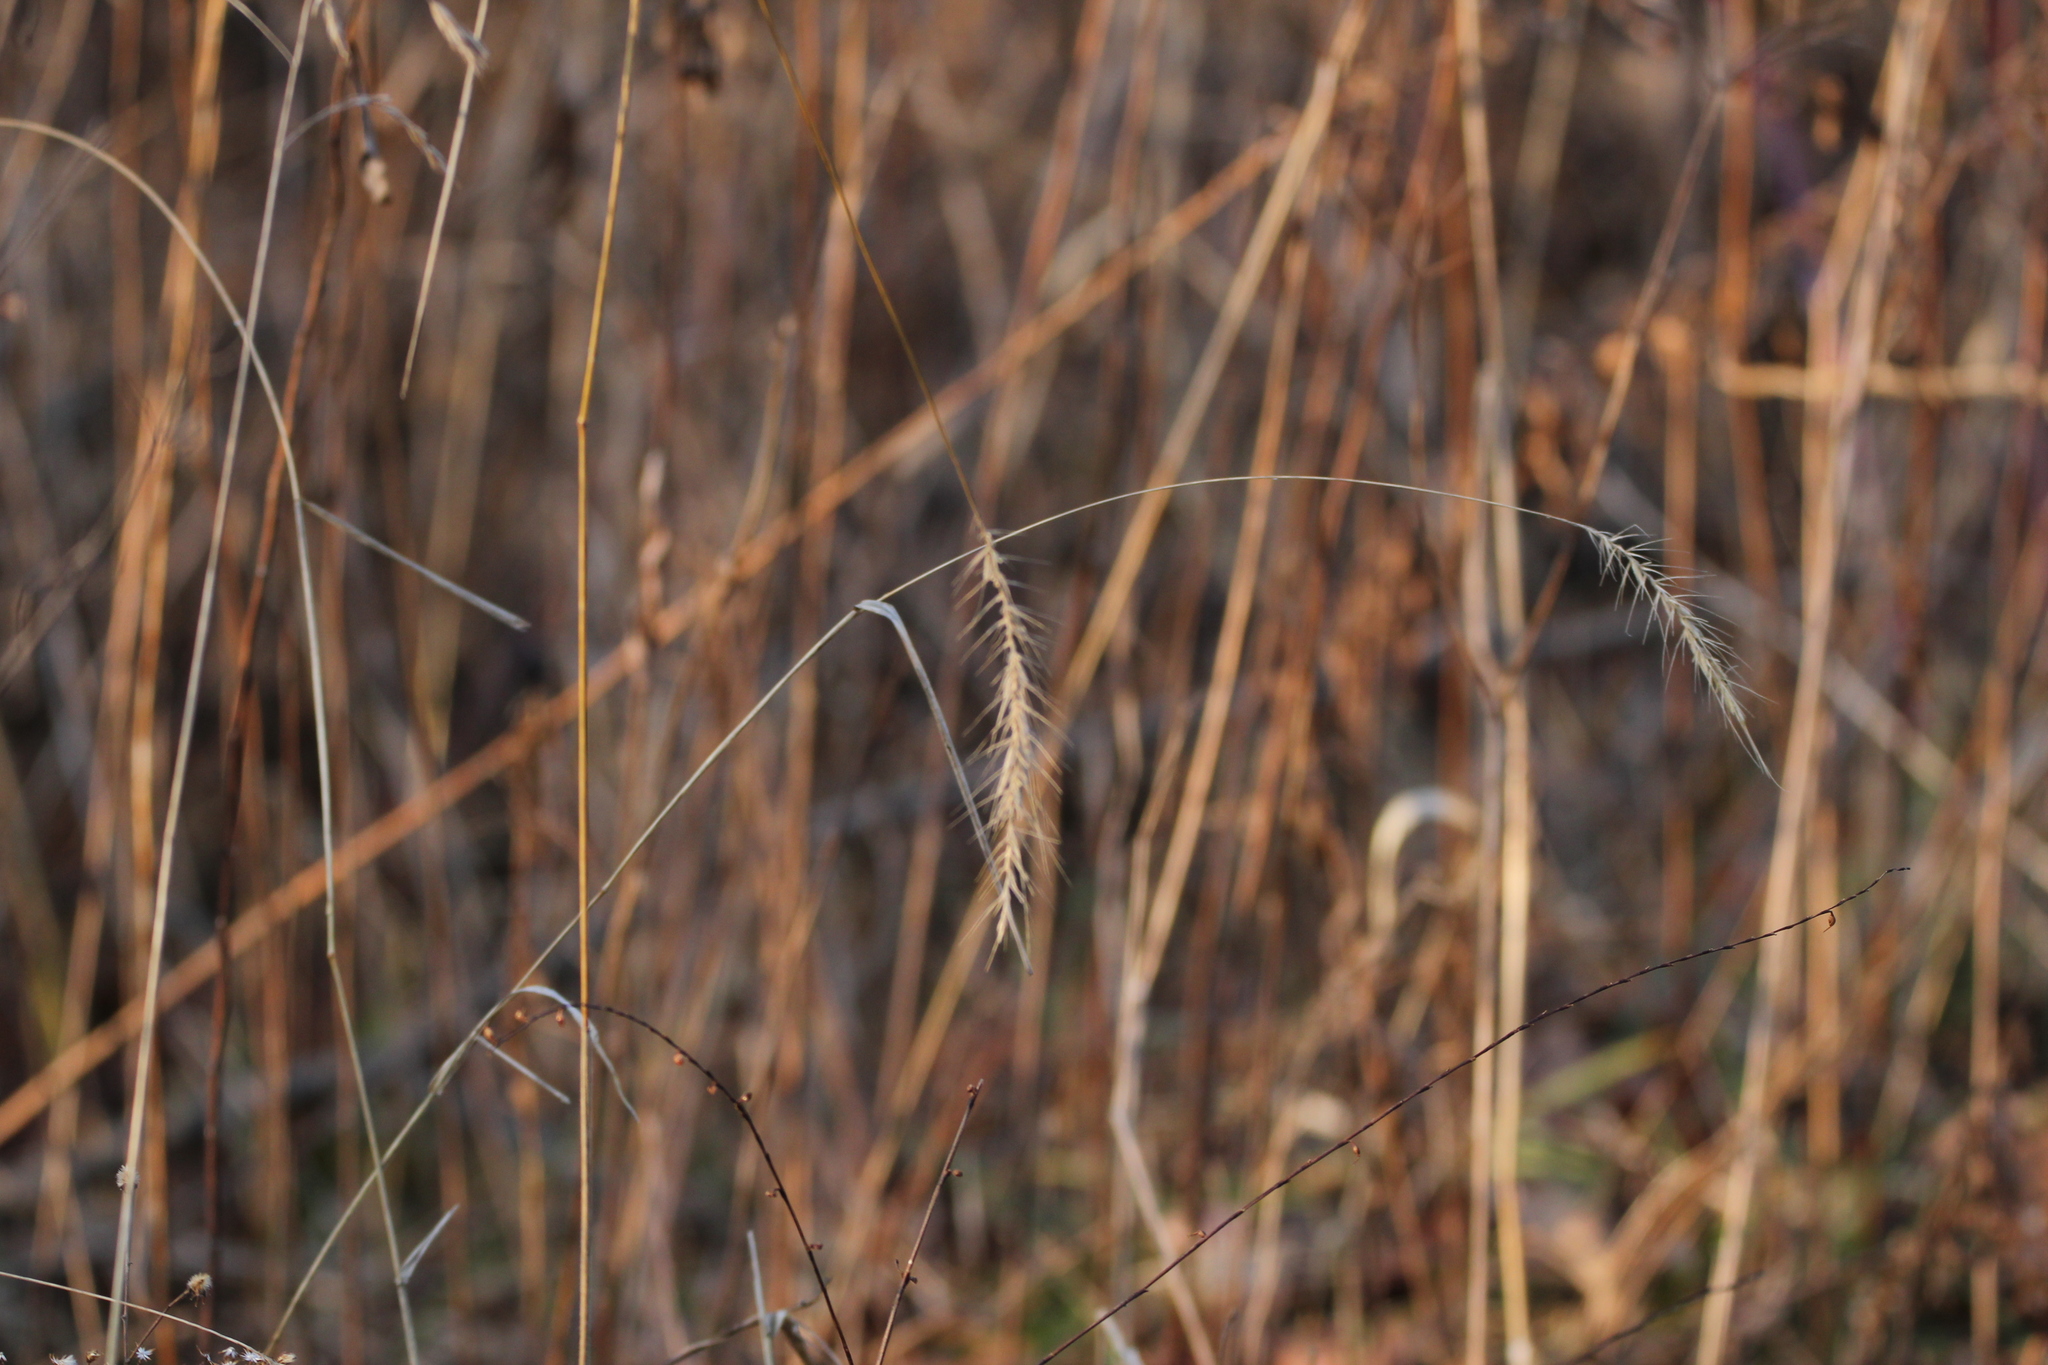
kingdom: Plantae
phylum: Tracheophyta
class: Liliopsida
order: Poales
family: Poaceae
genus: Elymus
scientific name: Elymus villosus
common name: Downy wild rye
